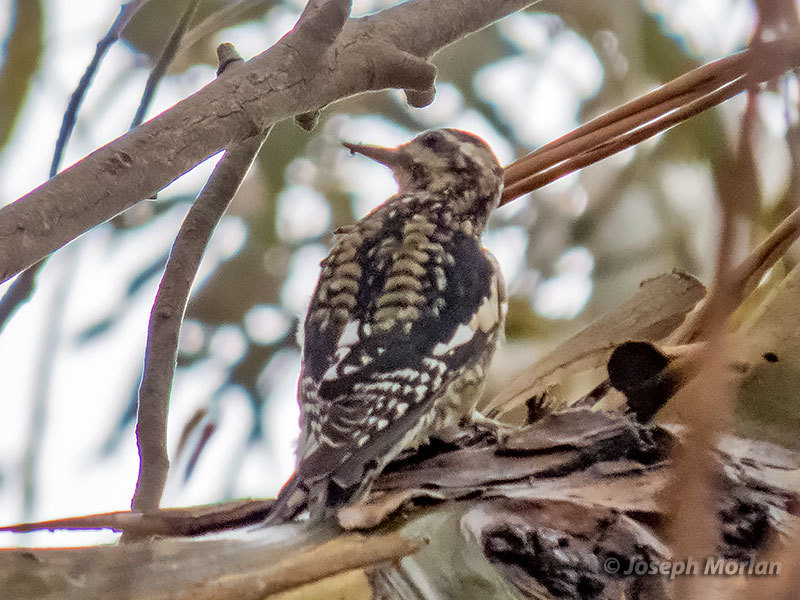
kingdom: Animalia
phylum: Chordata
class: Aves
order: Piciformes
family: Picidae
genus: Sphyrapicus
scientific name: Sphyrapicus varius
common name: Yellow-bellied sapsucker
